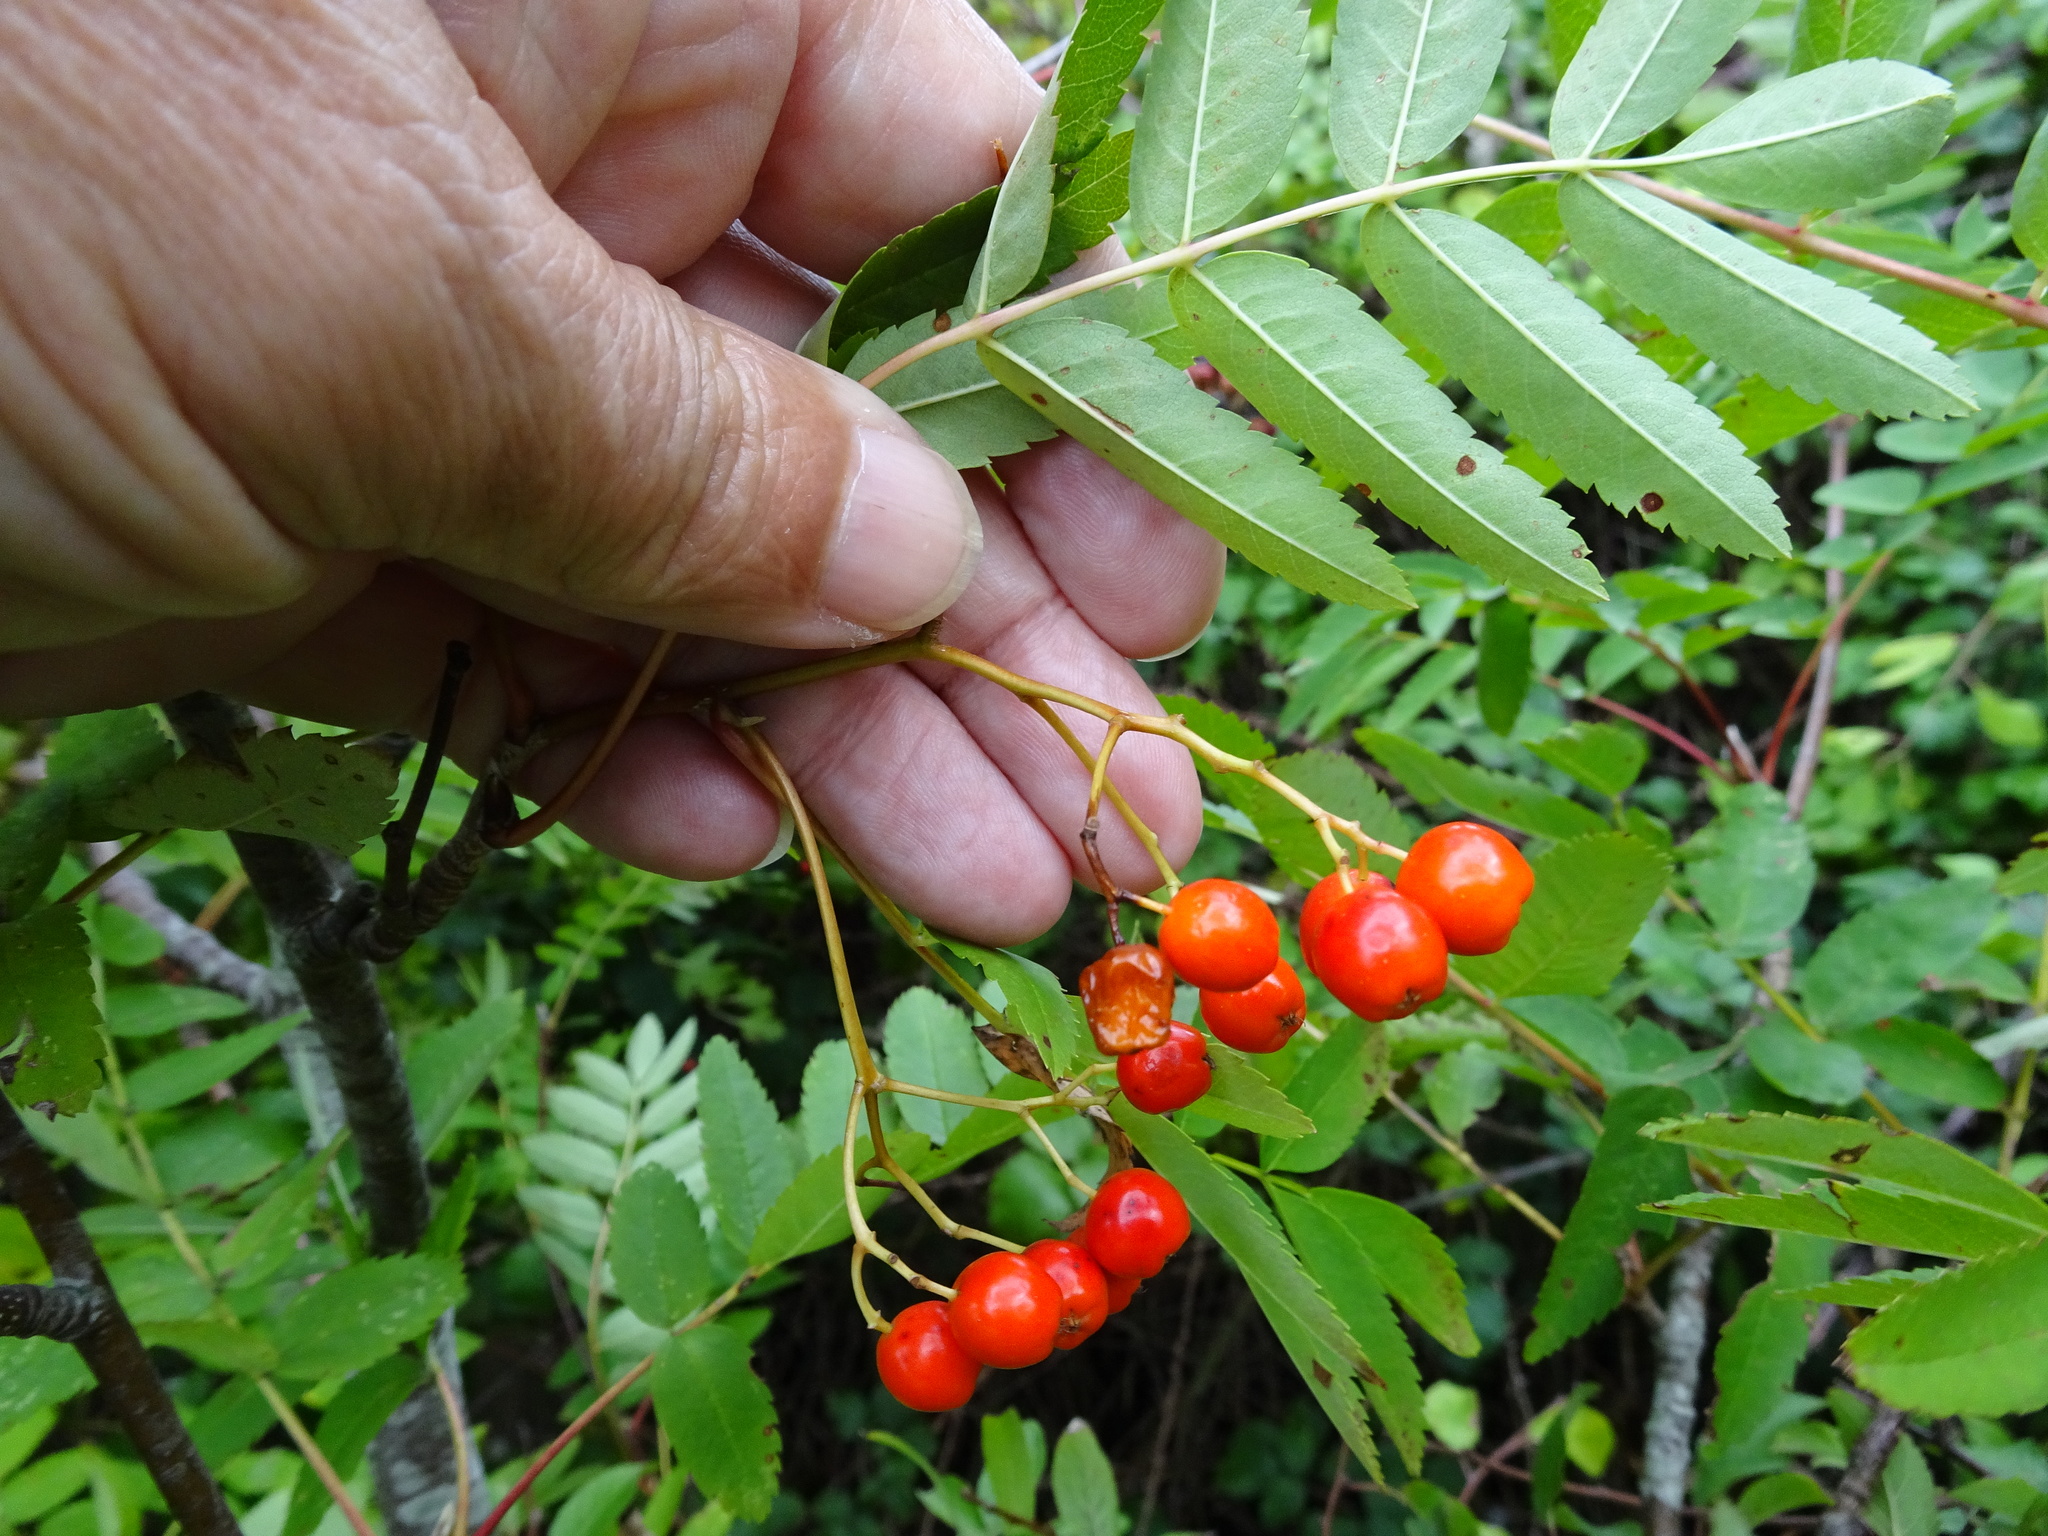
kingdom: Plantae
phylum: Tracheophyta
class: Magnoliopsida
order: Rosales
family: Rosaceae
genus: Sorbus
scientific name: Sorbus aucuparia
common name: Rowan
